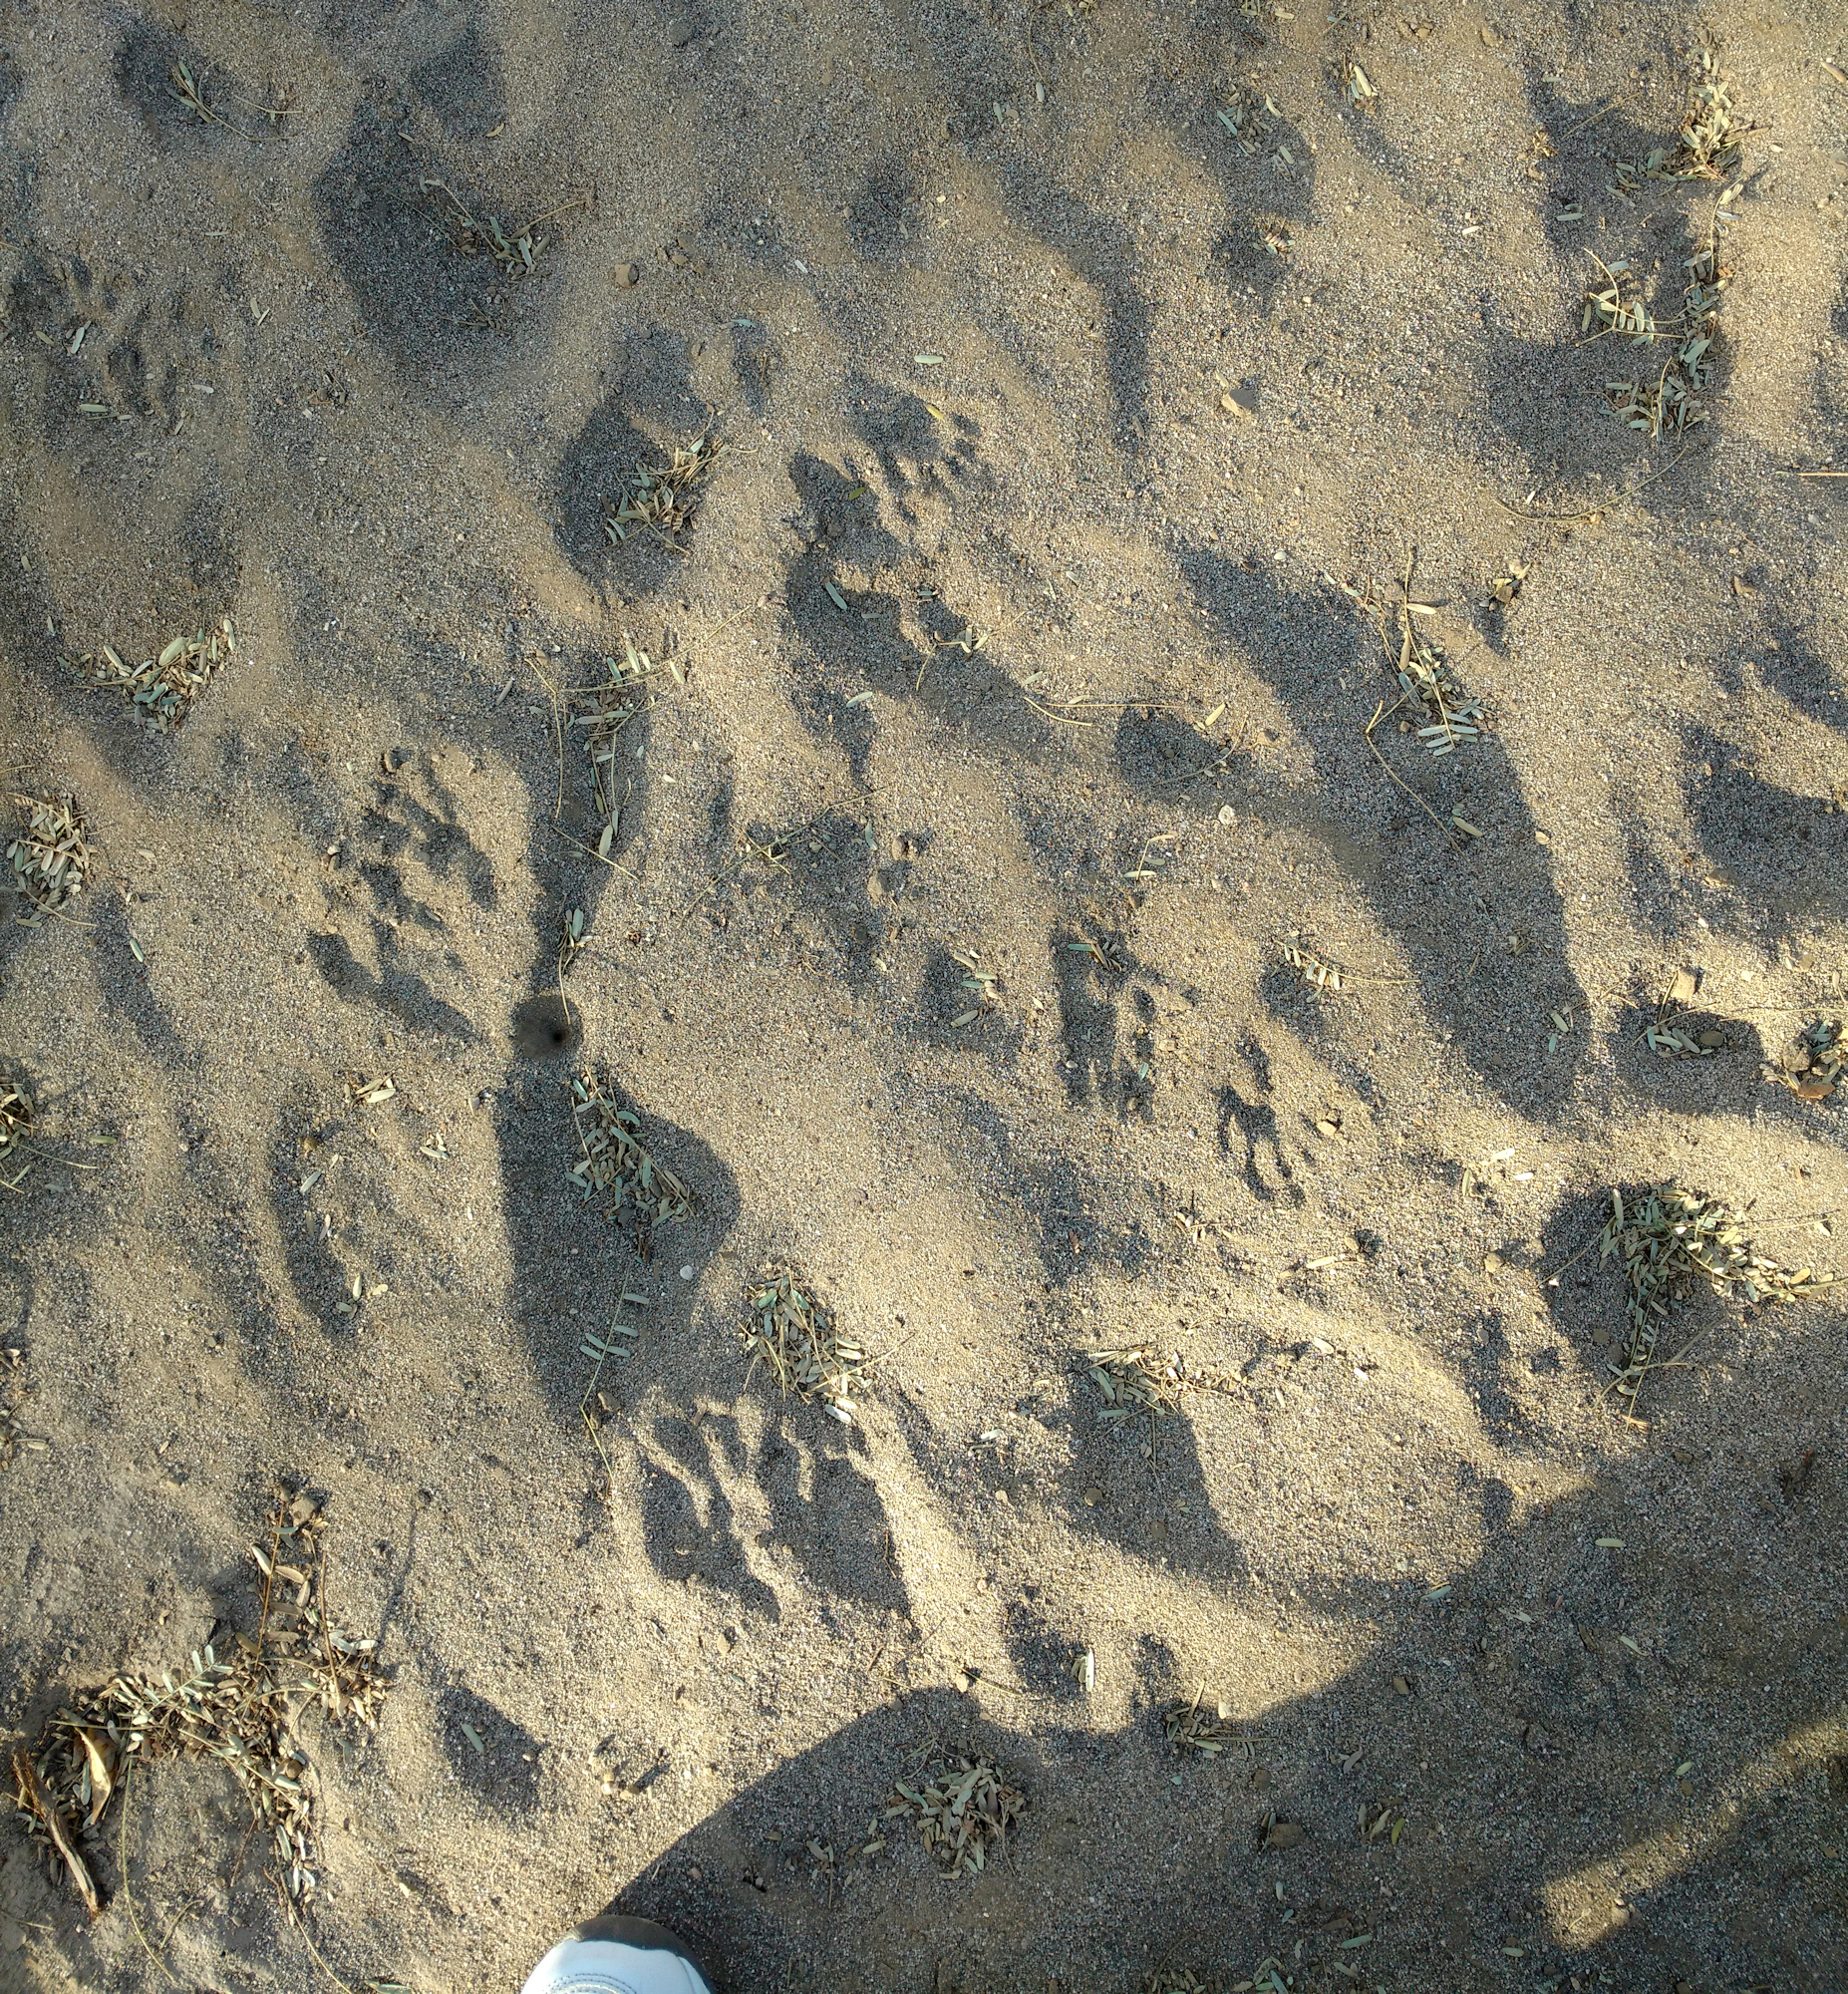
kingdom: Animalia
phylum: Chordata
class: Mammalia
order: Carnivora
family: Procyonidae
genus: Procyon
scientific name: Procyon lotor
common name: Raccoon
